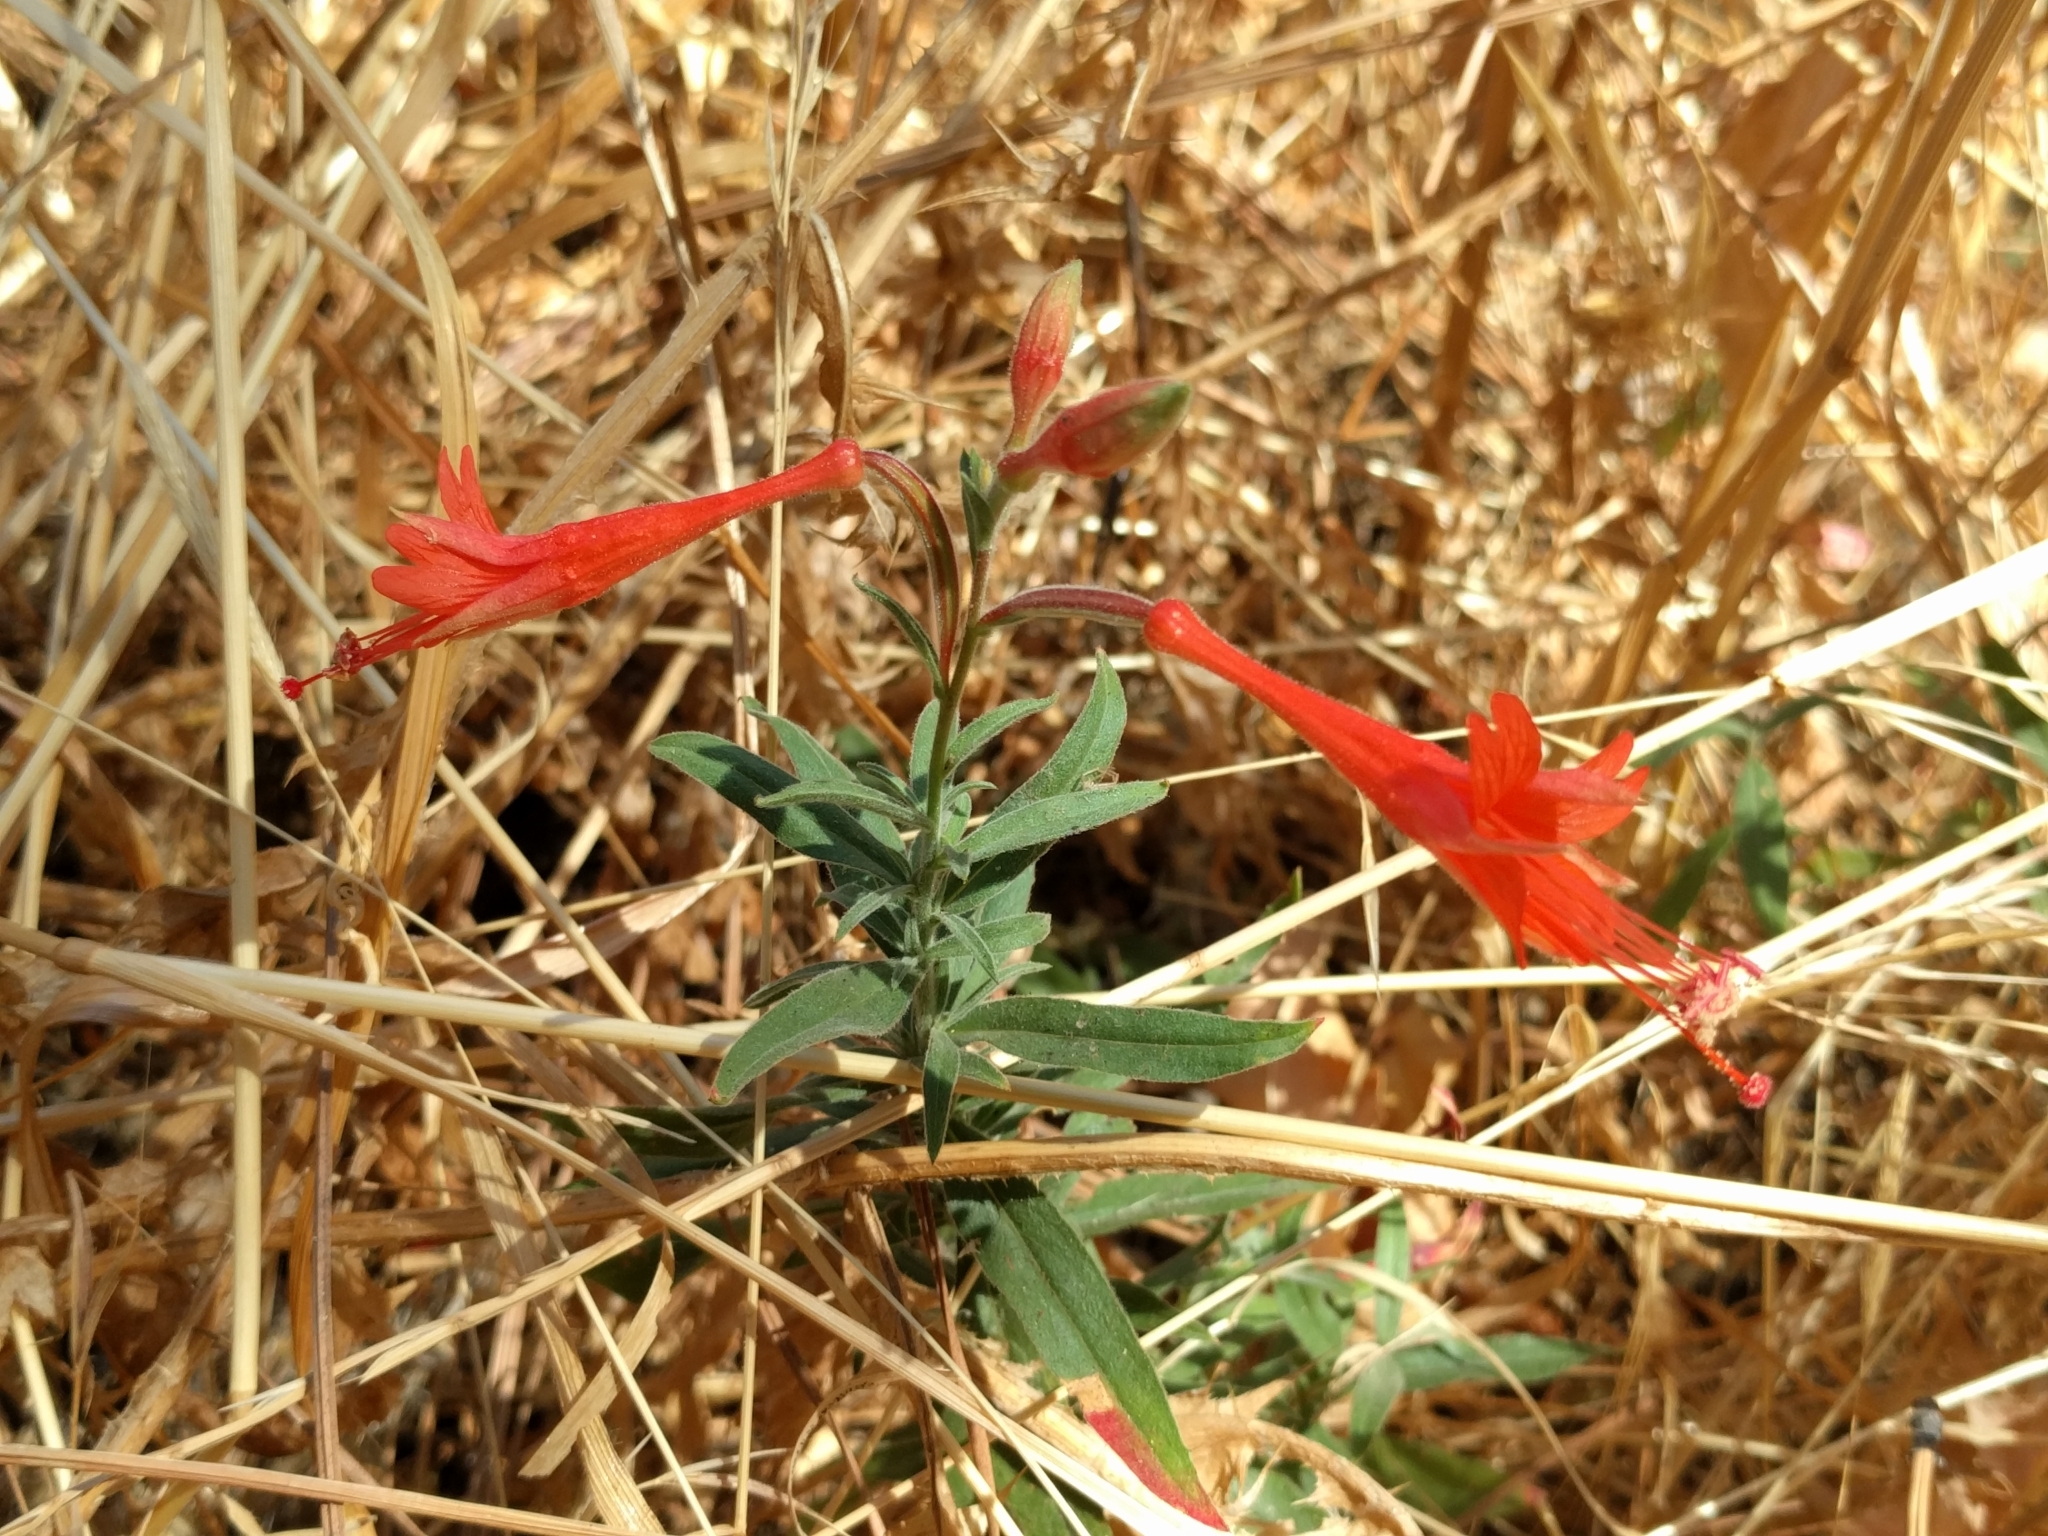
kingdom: Plantae
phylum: Tracheophyta
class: Magnoliopsida
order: Myrtales
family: Onagraceae
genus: Epilobium
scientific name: Epilobium canum
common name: California-fuchsia
